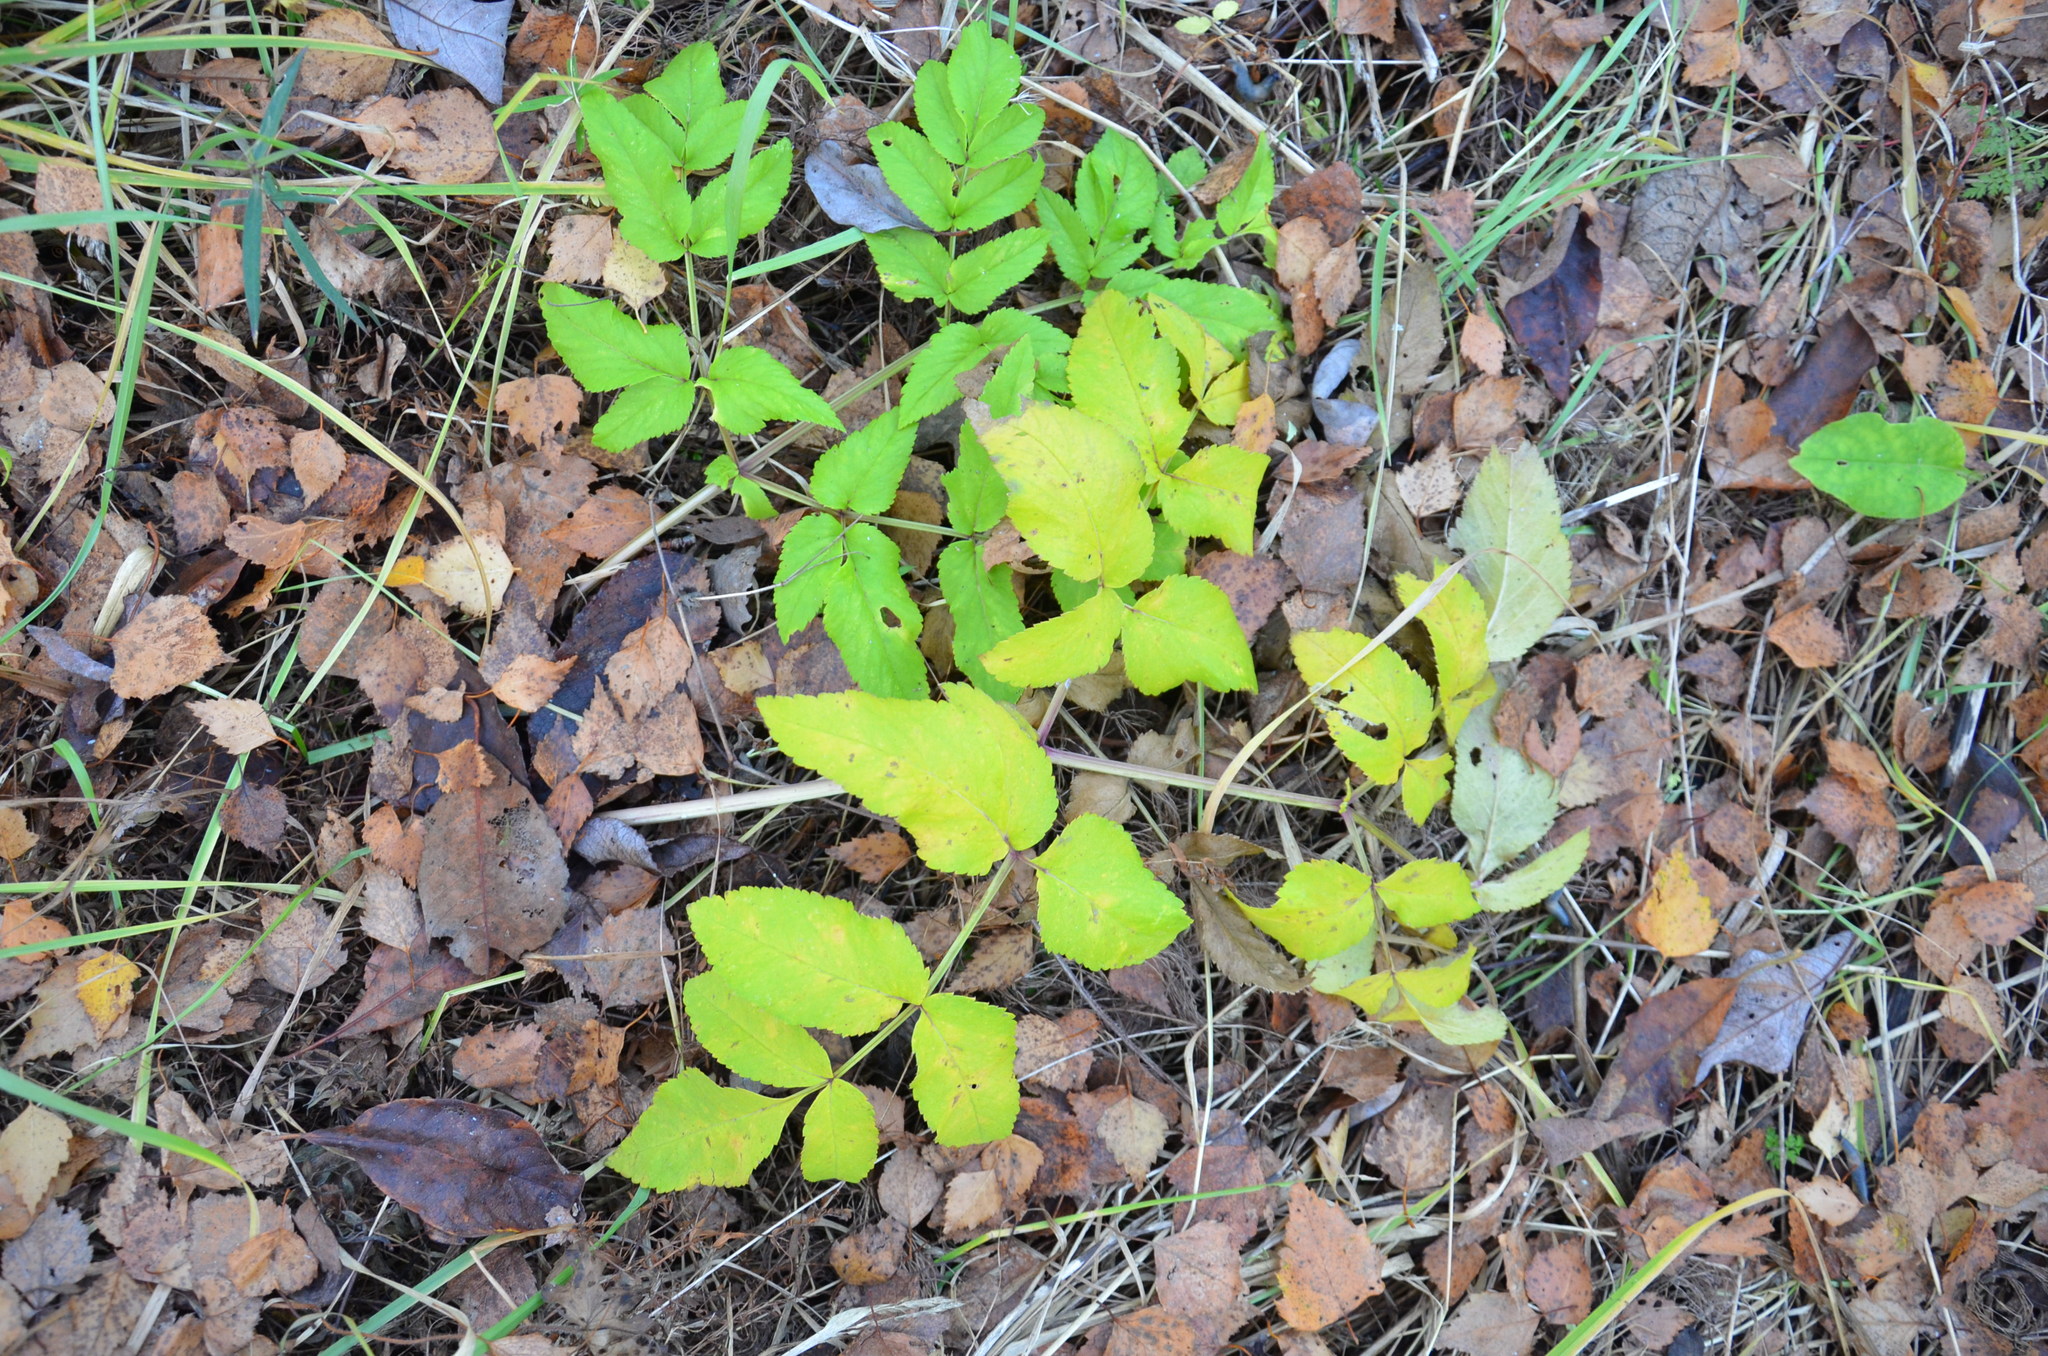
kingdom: Plantae
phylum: Tracheophyta
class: Magnoliopsida
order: Apiales
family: Apiaceae
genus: Angelica
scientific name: Angelica sylvestris
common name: Wild angelica
